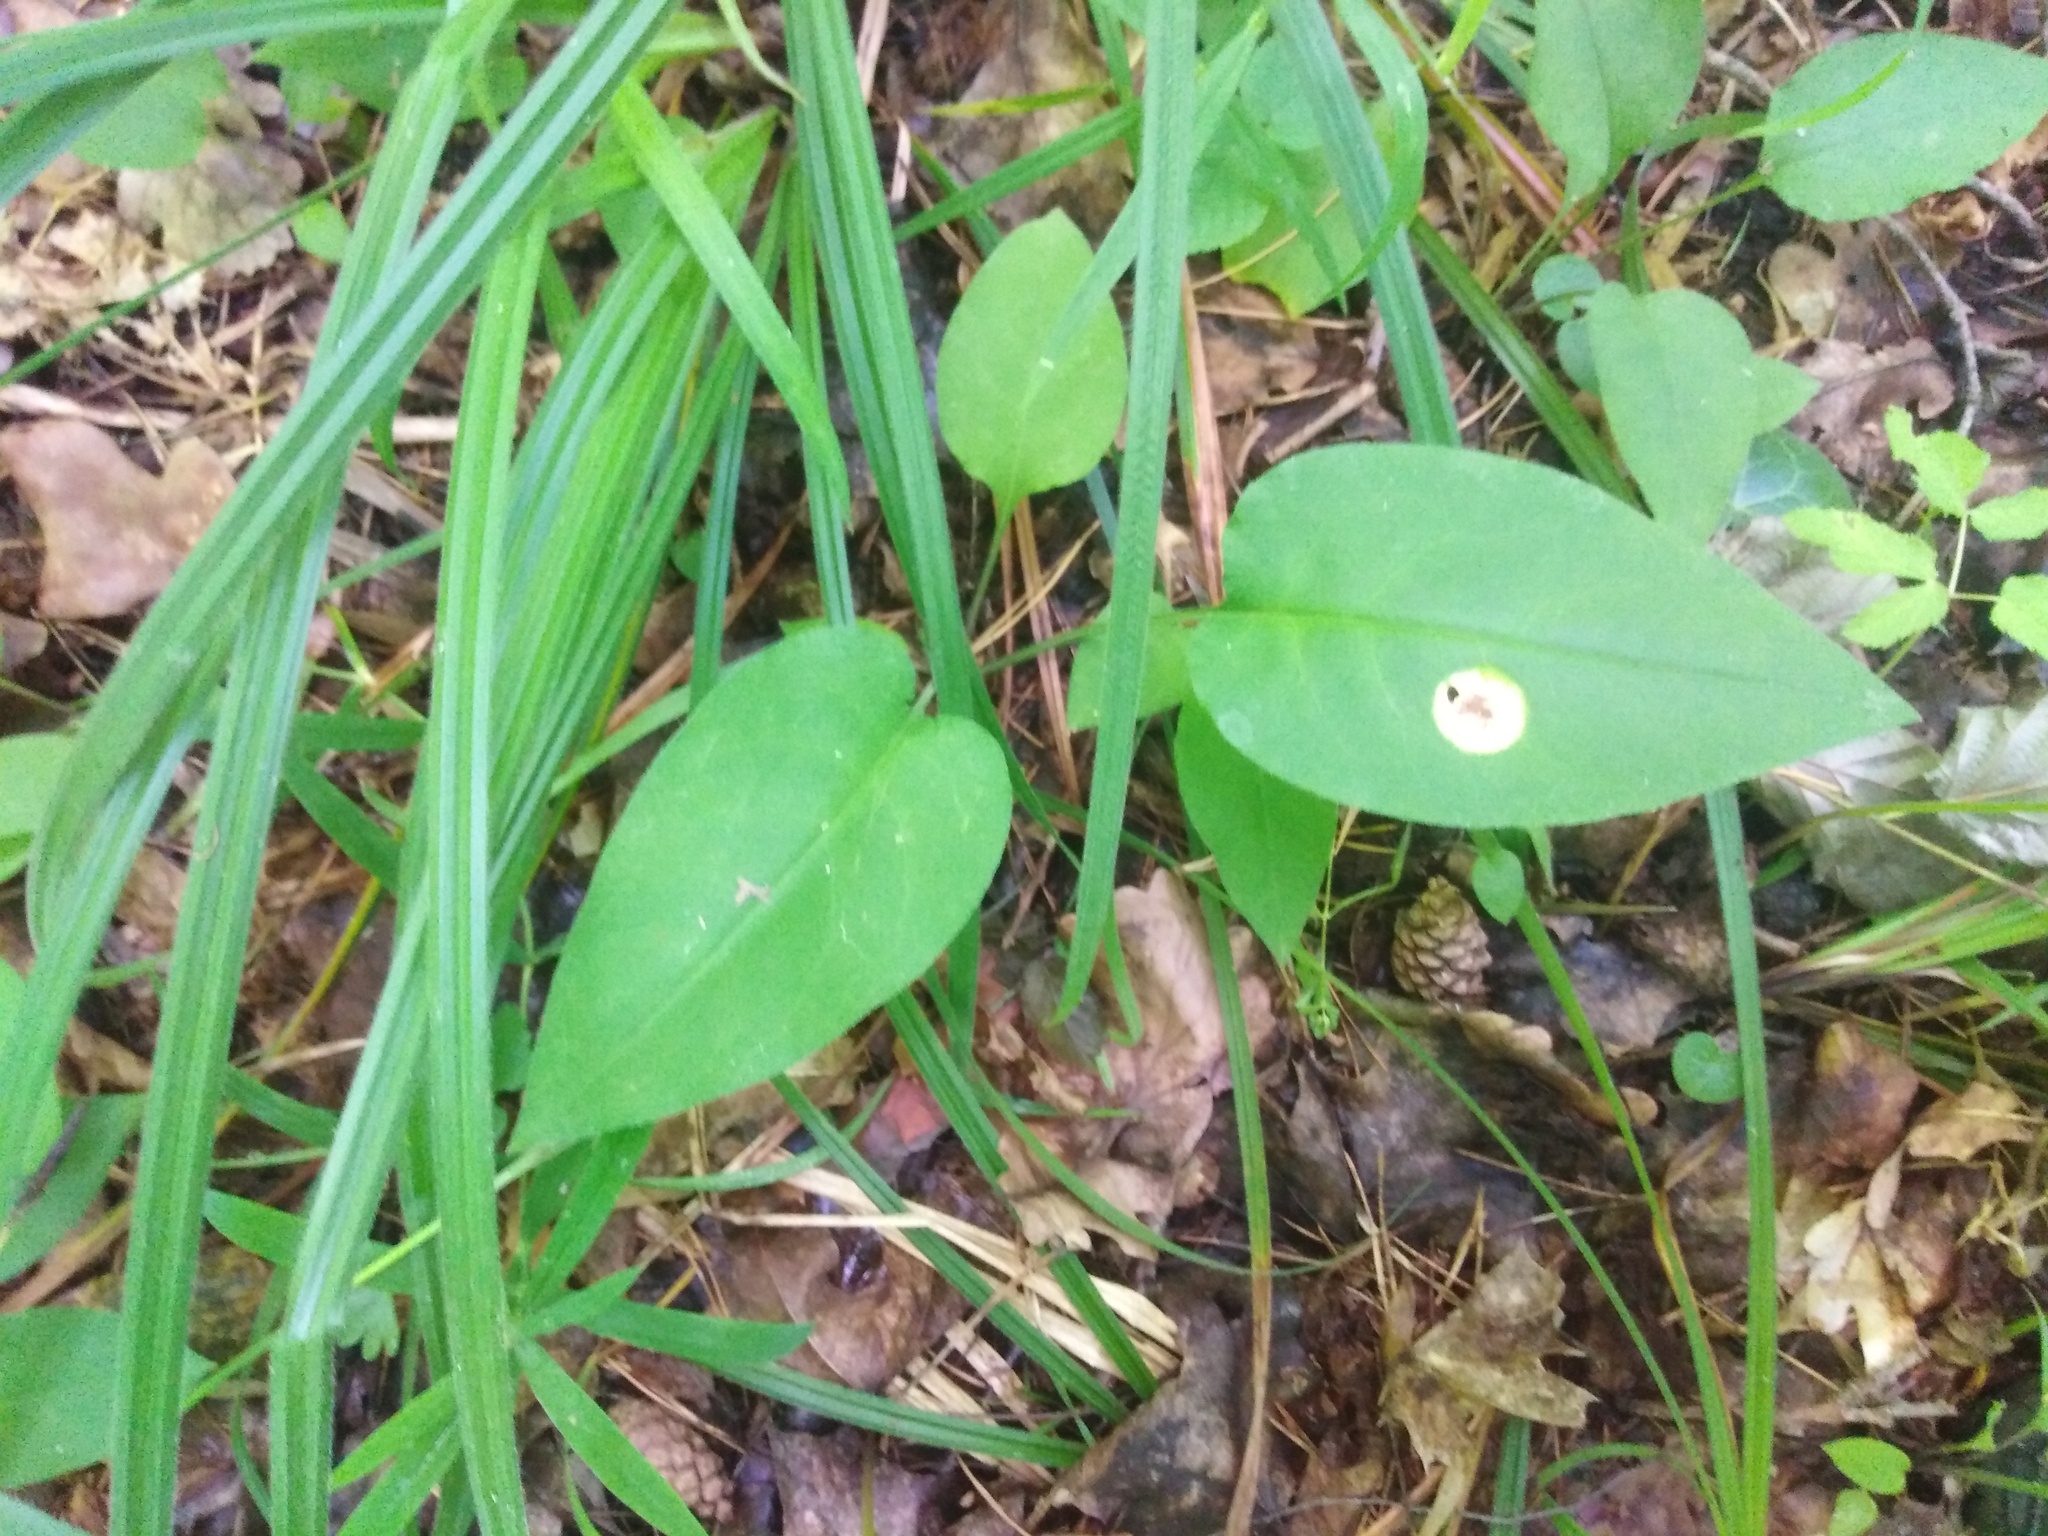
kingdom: Plantae
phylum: Tracheophyta
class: Magnoliopsida
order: Boraginales
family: Boraginaceae
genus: Pulmonaria
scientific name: Pulmonaria obscura
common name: Suffolk lungwort
